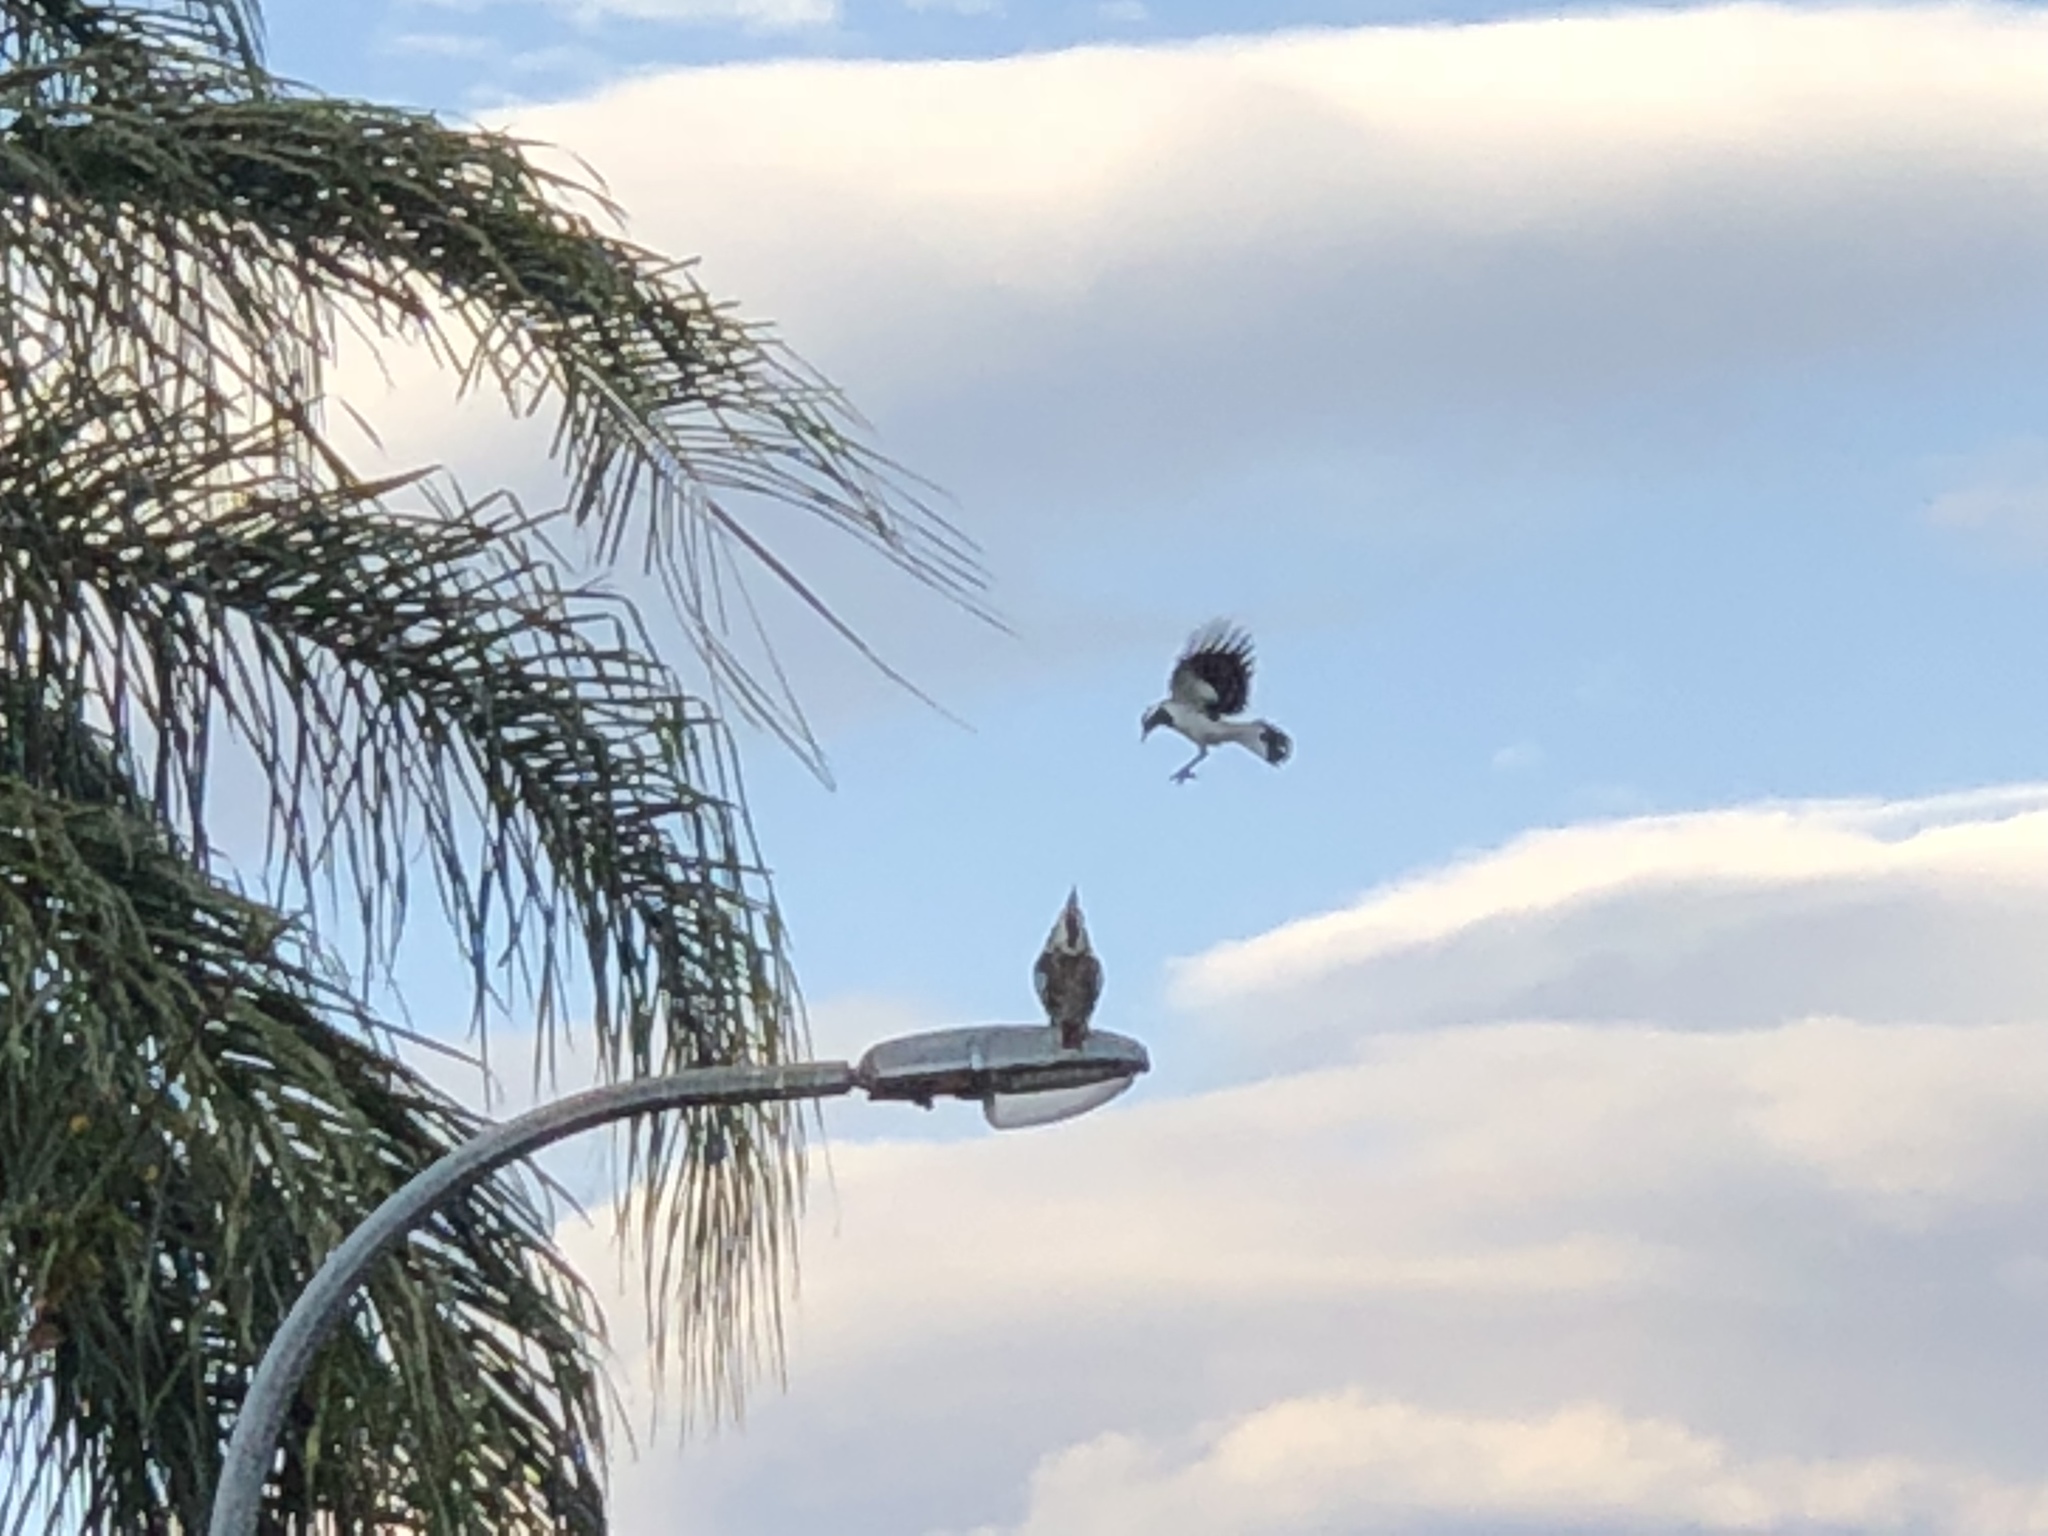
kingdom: Animalia
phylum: Chordata
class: Aves
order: Coraciiformes
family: Alcedinidae
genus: Dacelo
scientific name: Dacelo novaeguineae
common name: Laughing kookaburra
